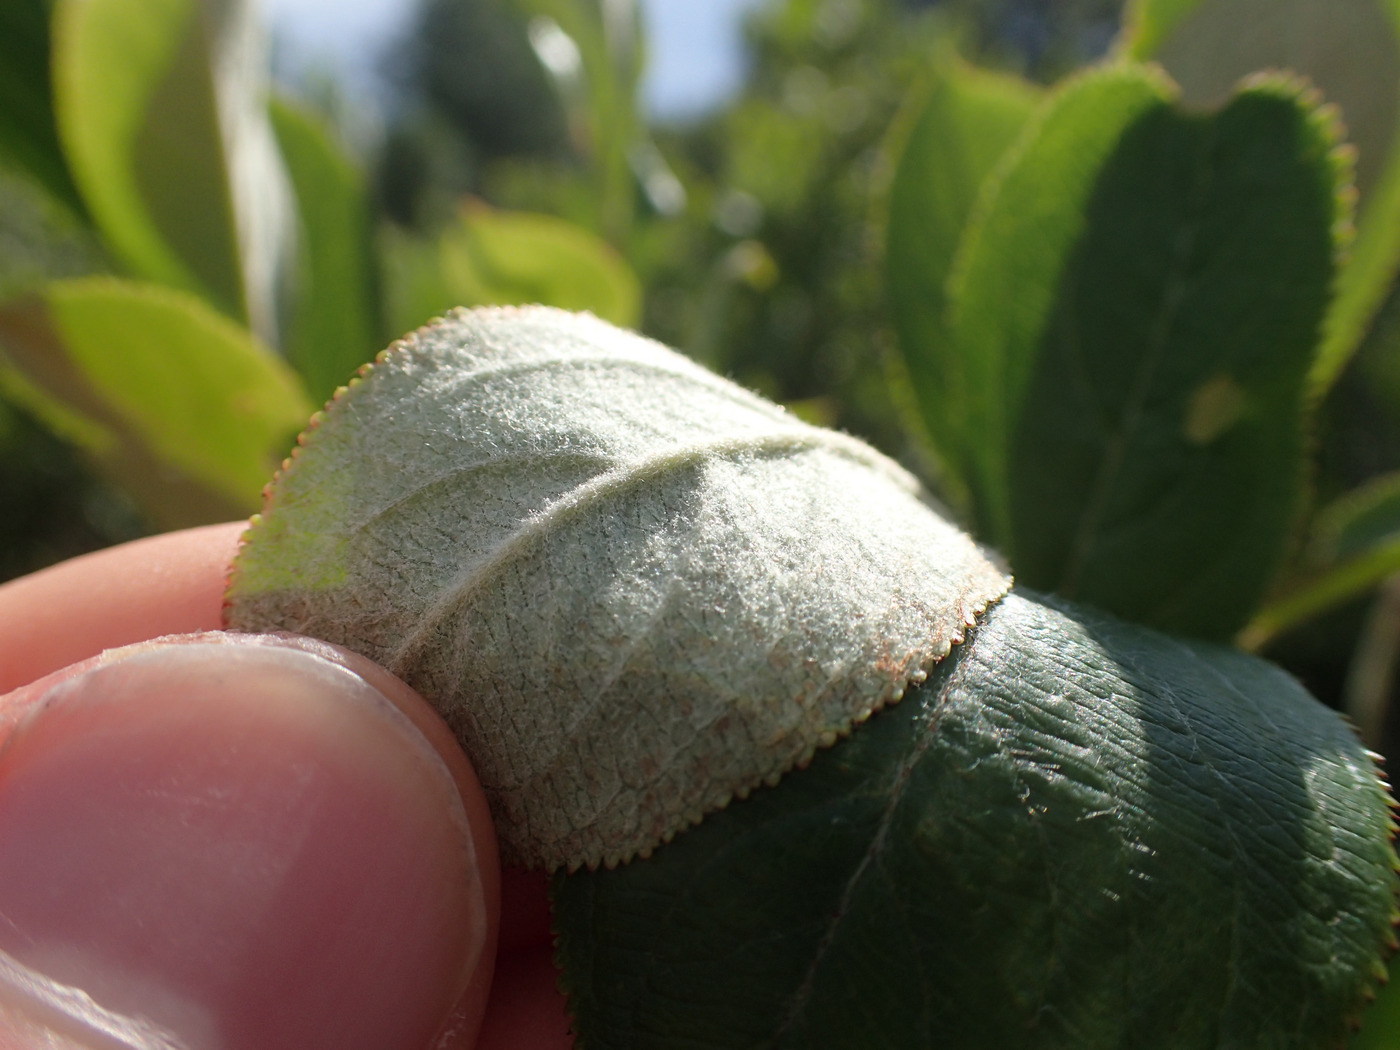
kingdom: Plantae
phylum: Tracheophyta
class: Magnoliopsida
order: Rosales
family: Rosaceae
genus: Aronia
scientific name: Aronia arbutifolia
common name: Red chokeberry
